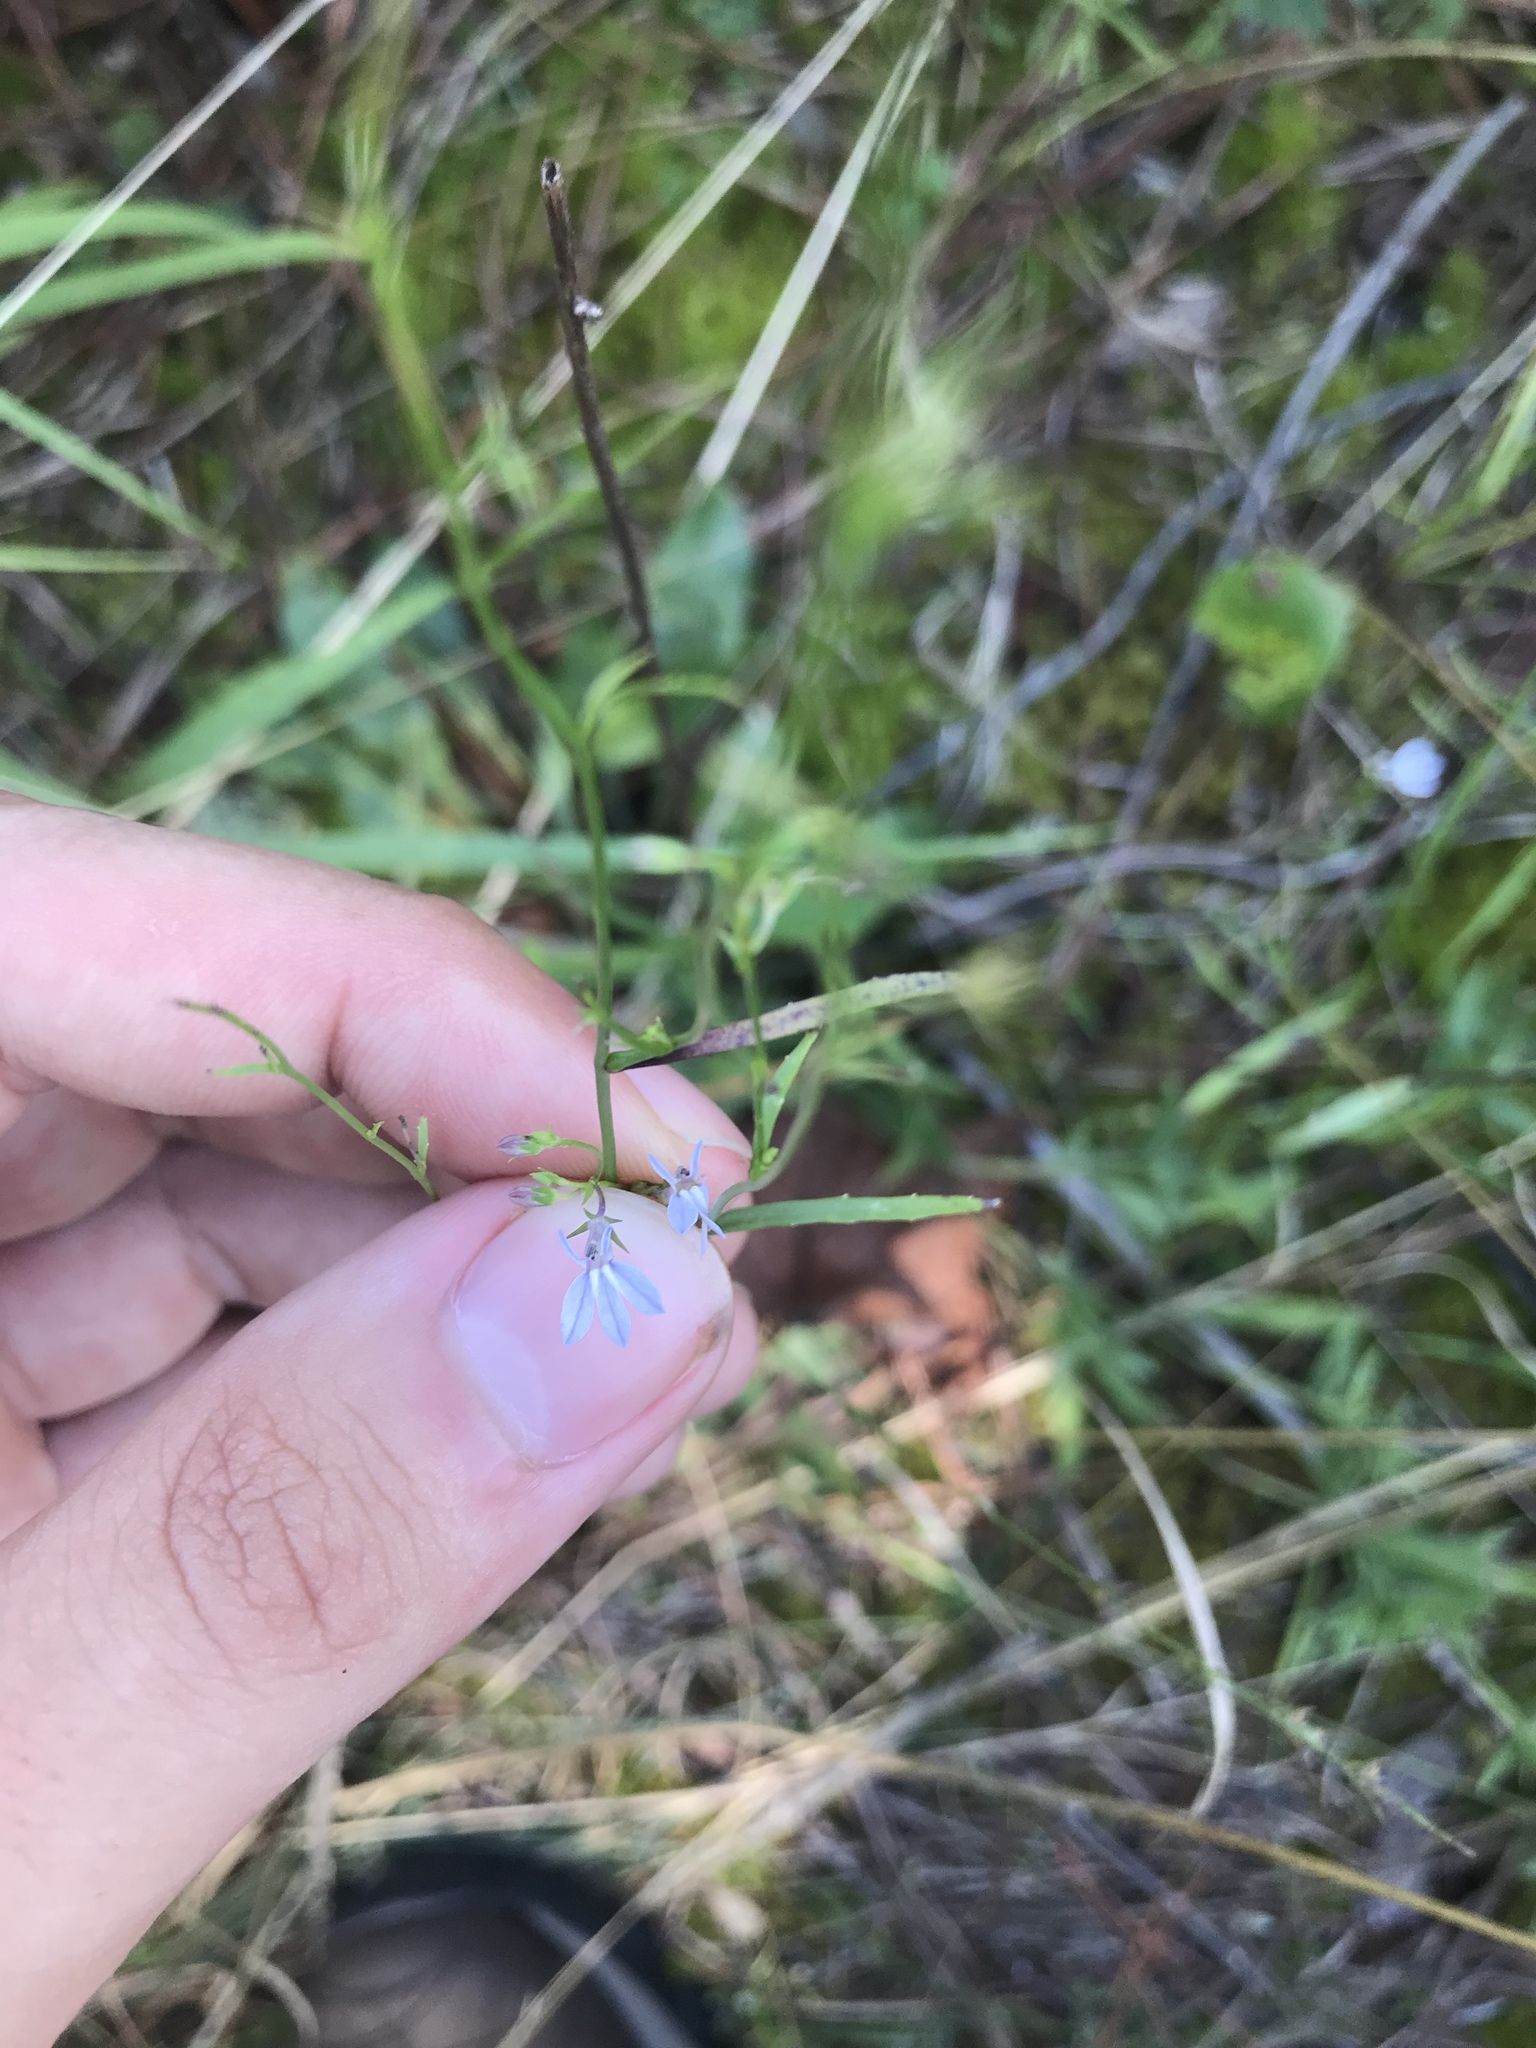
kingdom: Plantae
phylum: Tracheophyta
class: Magnoliopsida
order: Asterales
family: Campanulaceae
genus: Lobelia
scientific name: Lobelia nuttallii
